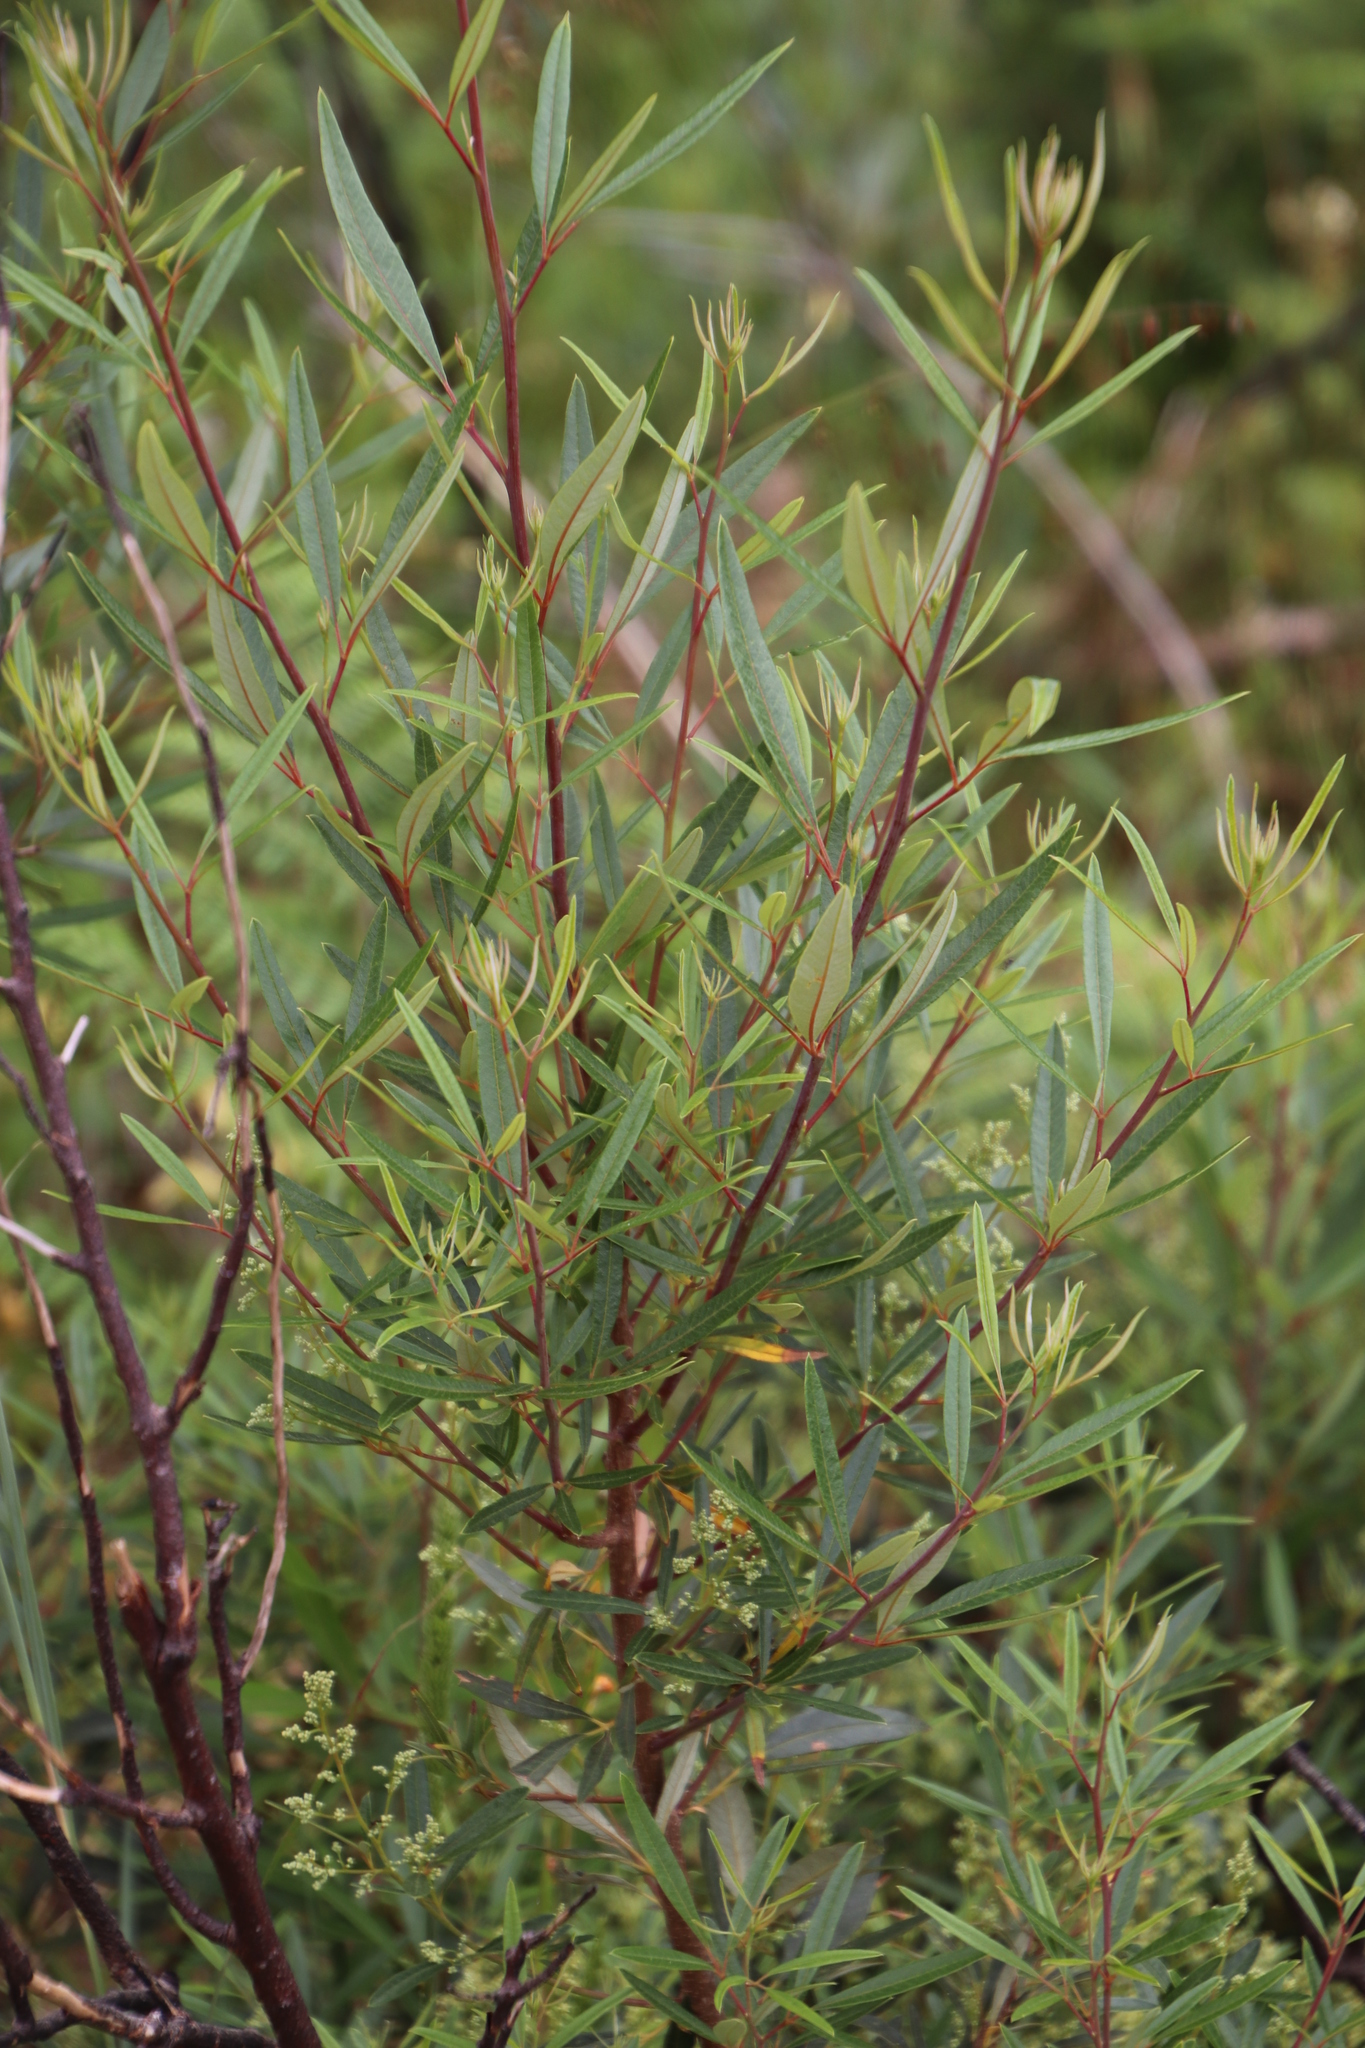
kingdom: Plantae
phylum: Tracheophyta
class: Magnoliopsida
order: Sapindales
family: Anacardiaceae
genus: Searsia
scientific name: Searsia angustifolia
